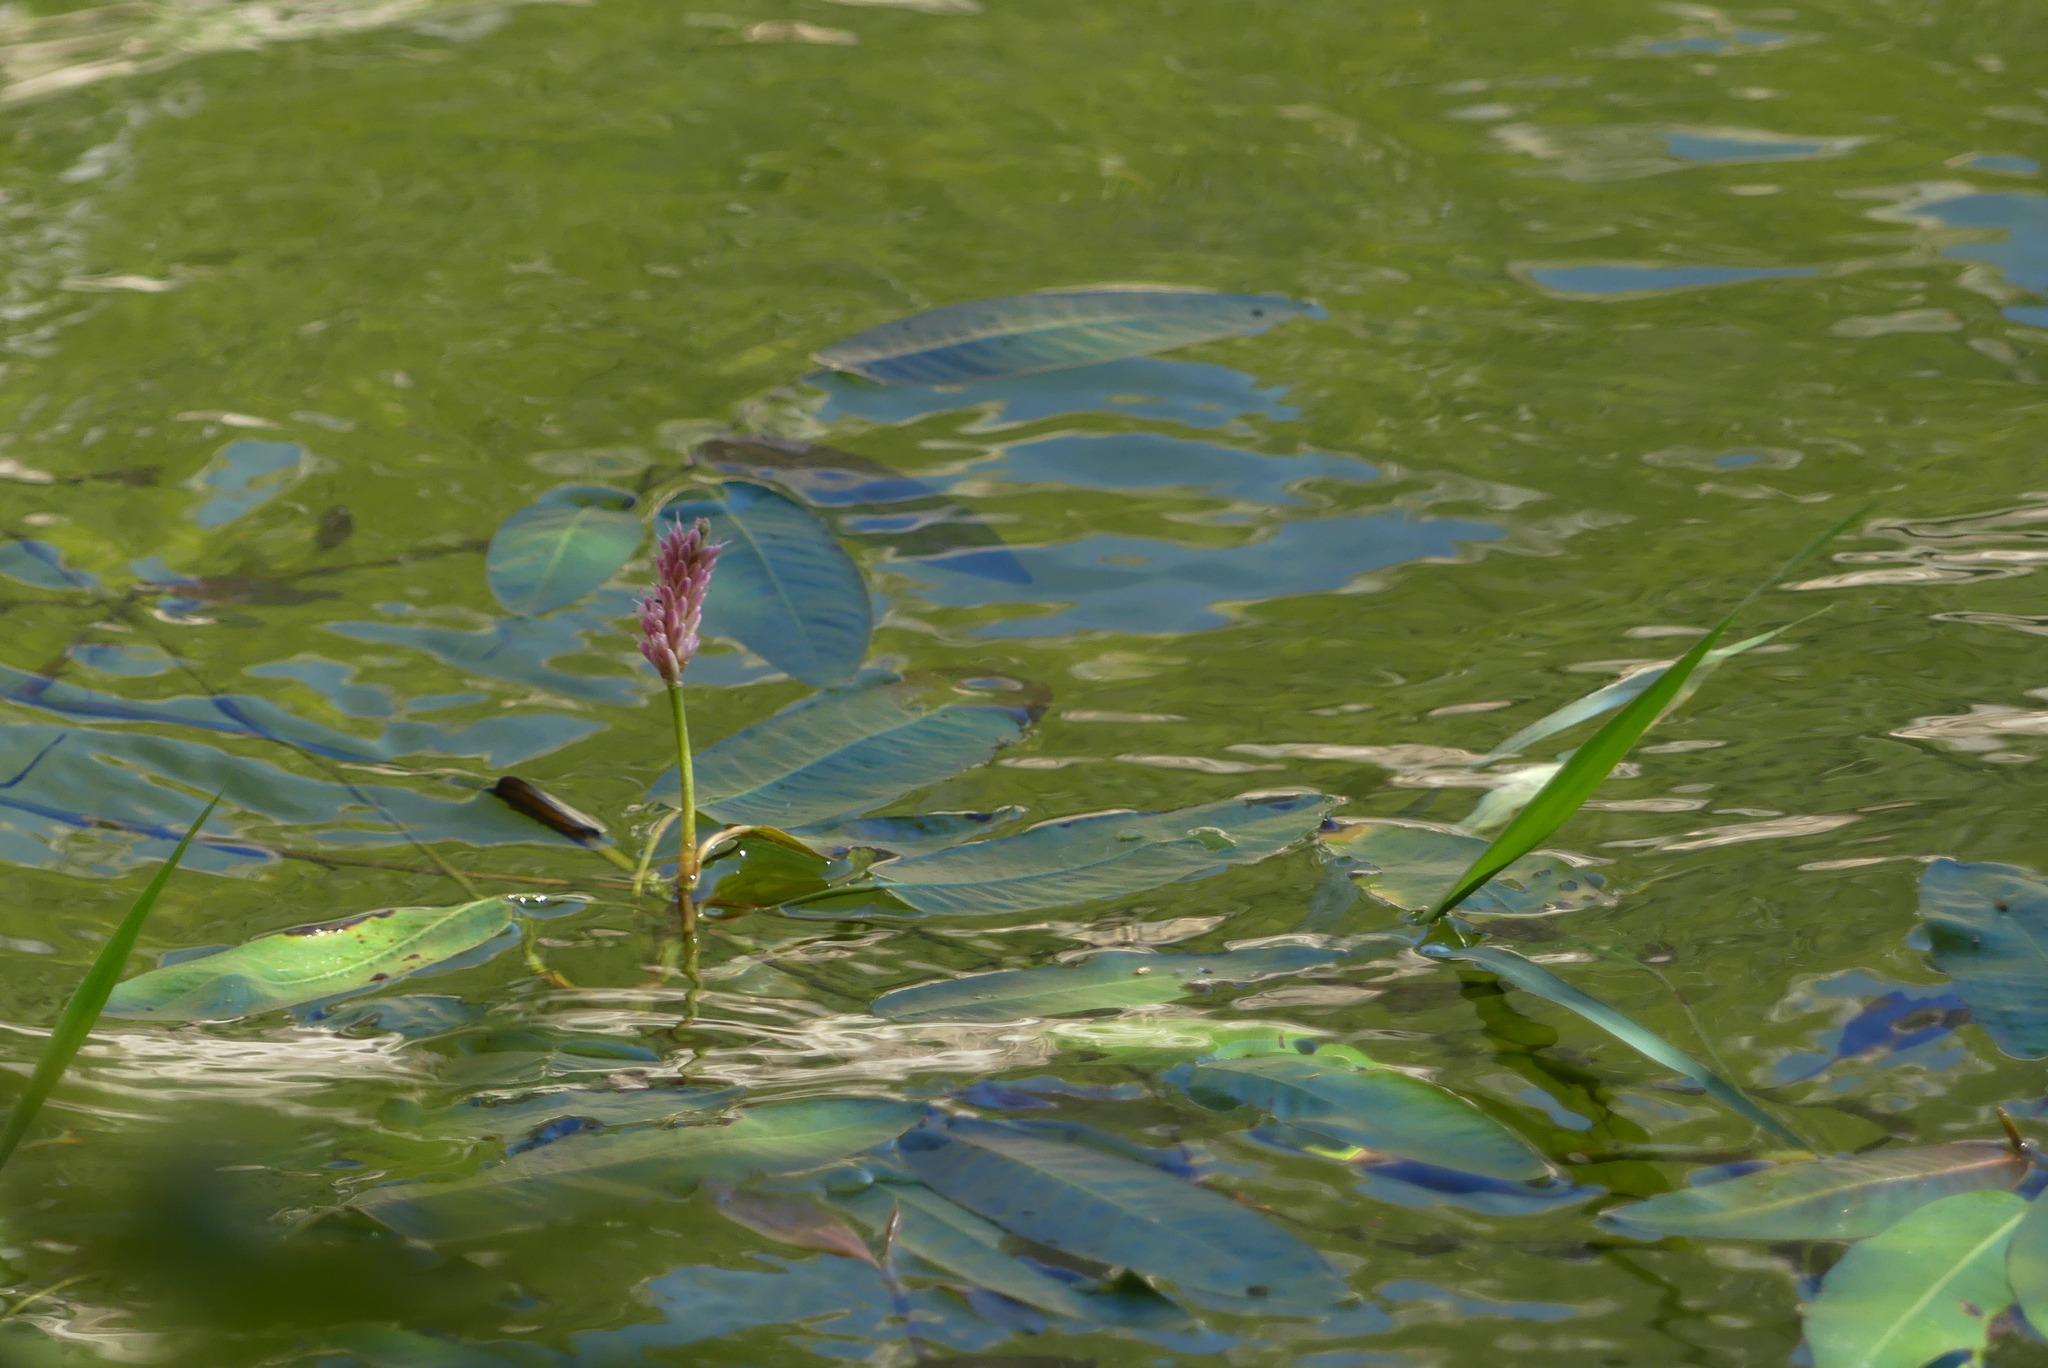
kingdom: Plantae
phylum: Tracheophyta
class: Magnoliopsida
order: Caryophyllales
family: Polygonaceae
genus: Persicaria
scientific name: Persicaria amphibia
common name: Amphibious bistort
